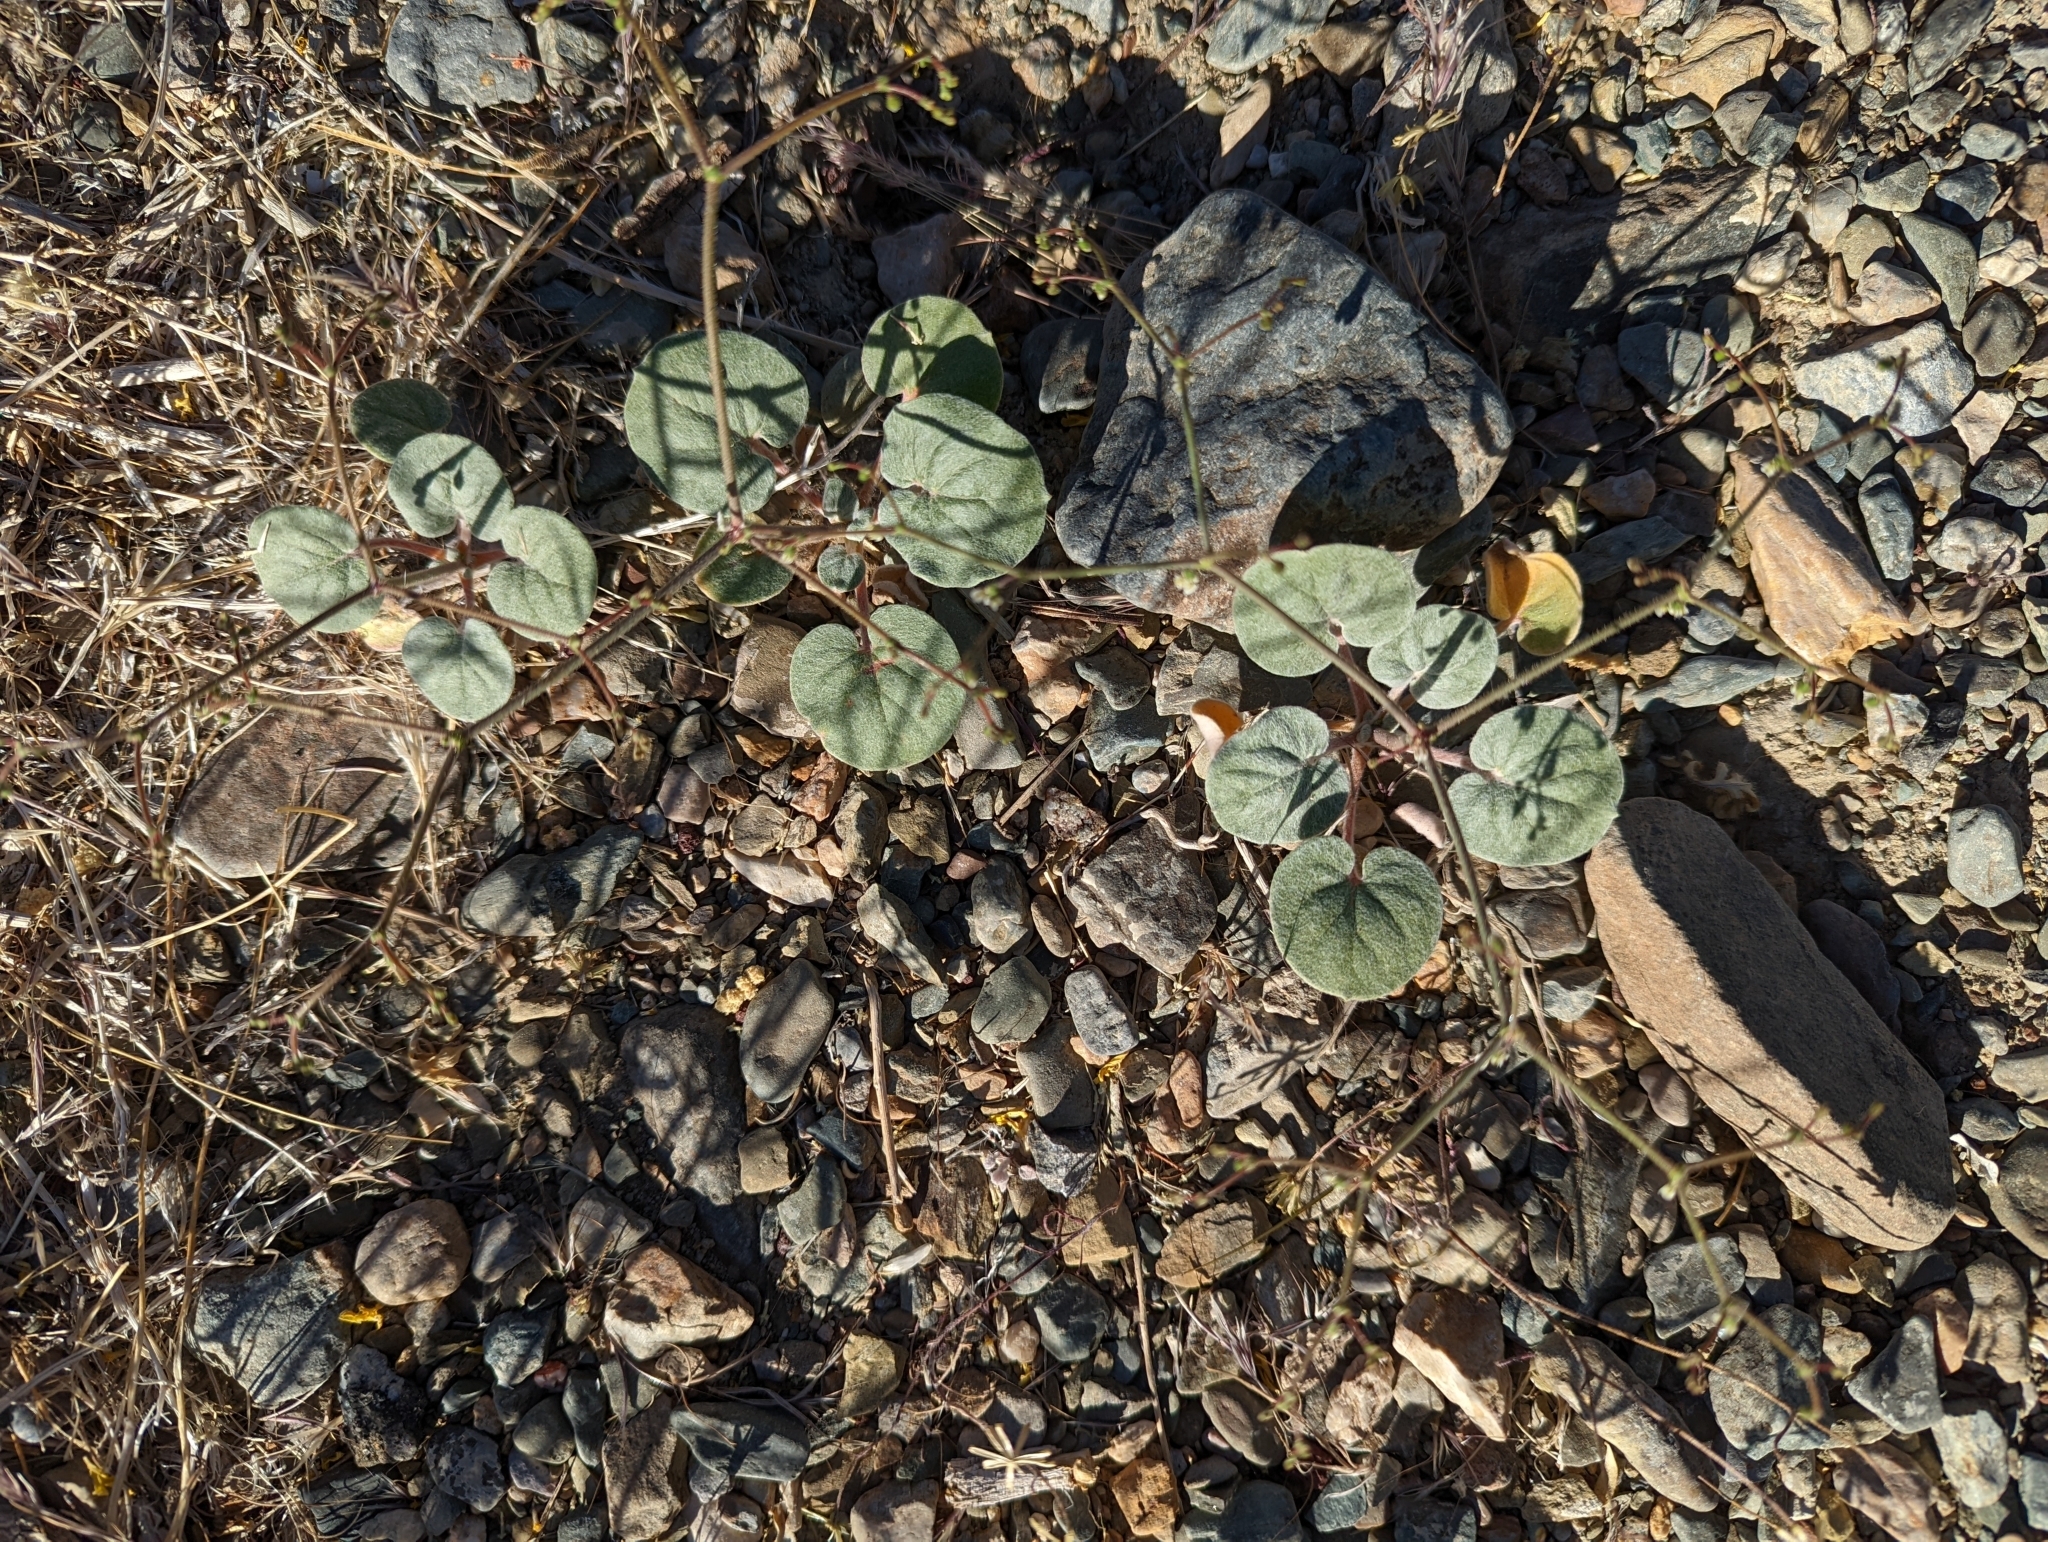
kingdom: Plantae
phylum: Tracheophyta
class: Magnoliopsida
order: Caryophyllales
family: Polygonaceae
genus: Eriogonum
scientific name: Eriogonum brachypodum
